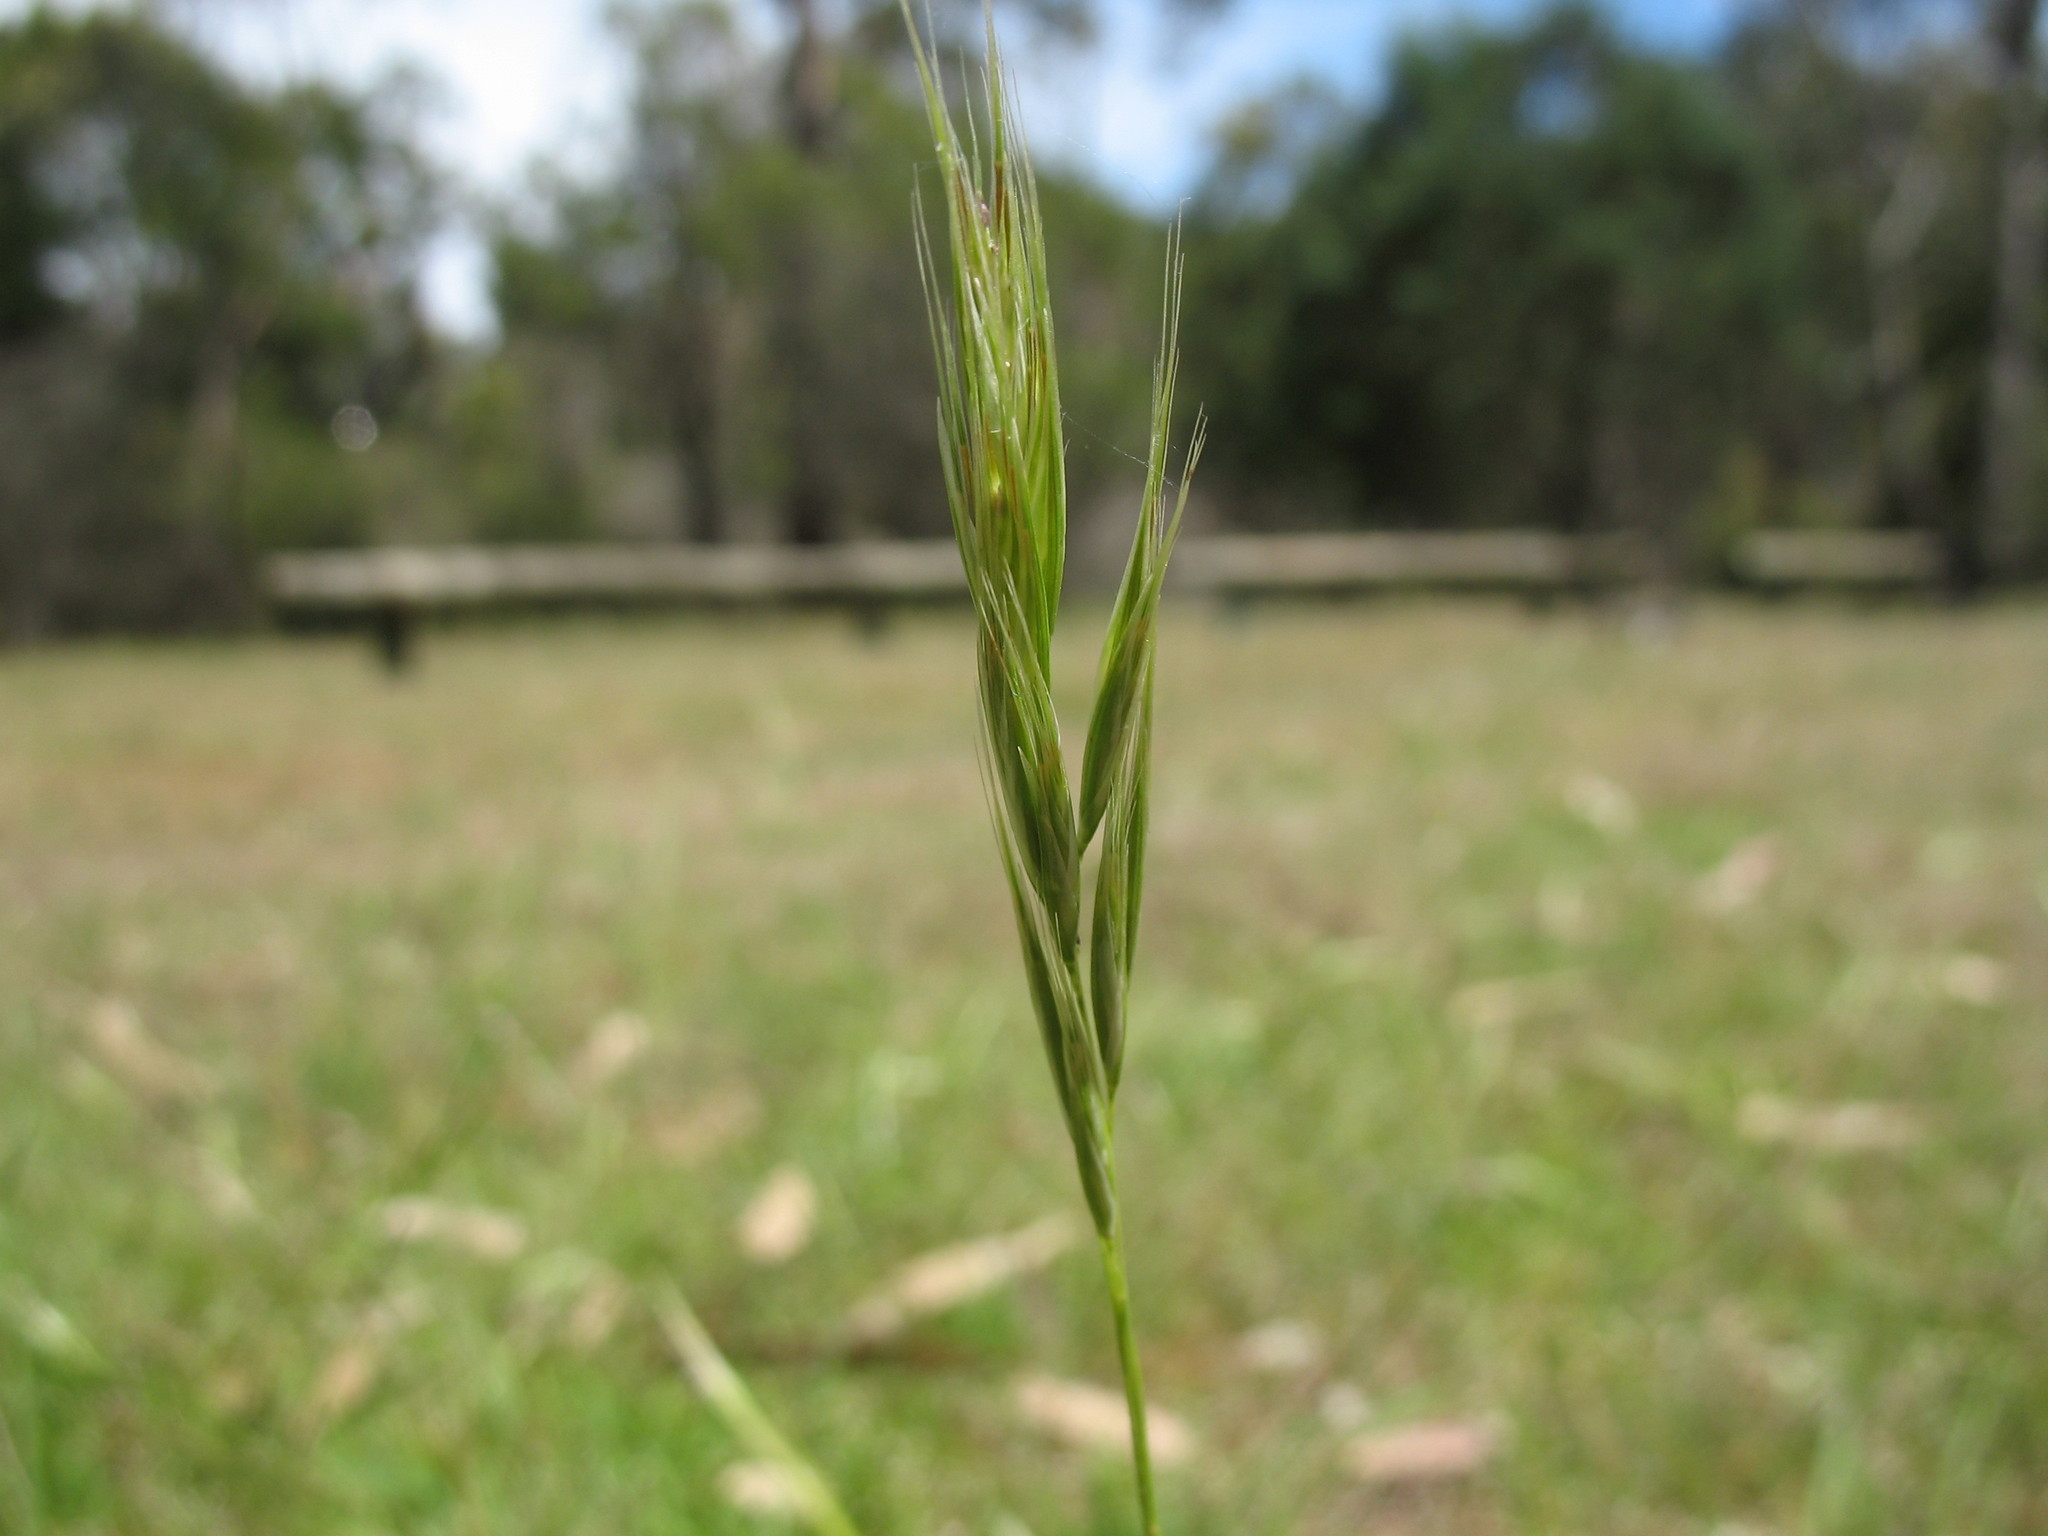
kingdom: Plantae
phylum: Tracheophyta
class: Liliopsida
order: Poales
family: Poaceae
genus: Rytidosperma
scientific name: Rytidosperma racemosum
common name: Wallaby-grass
